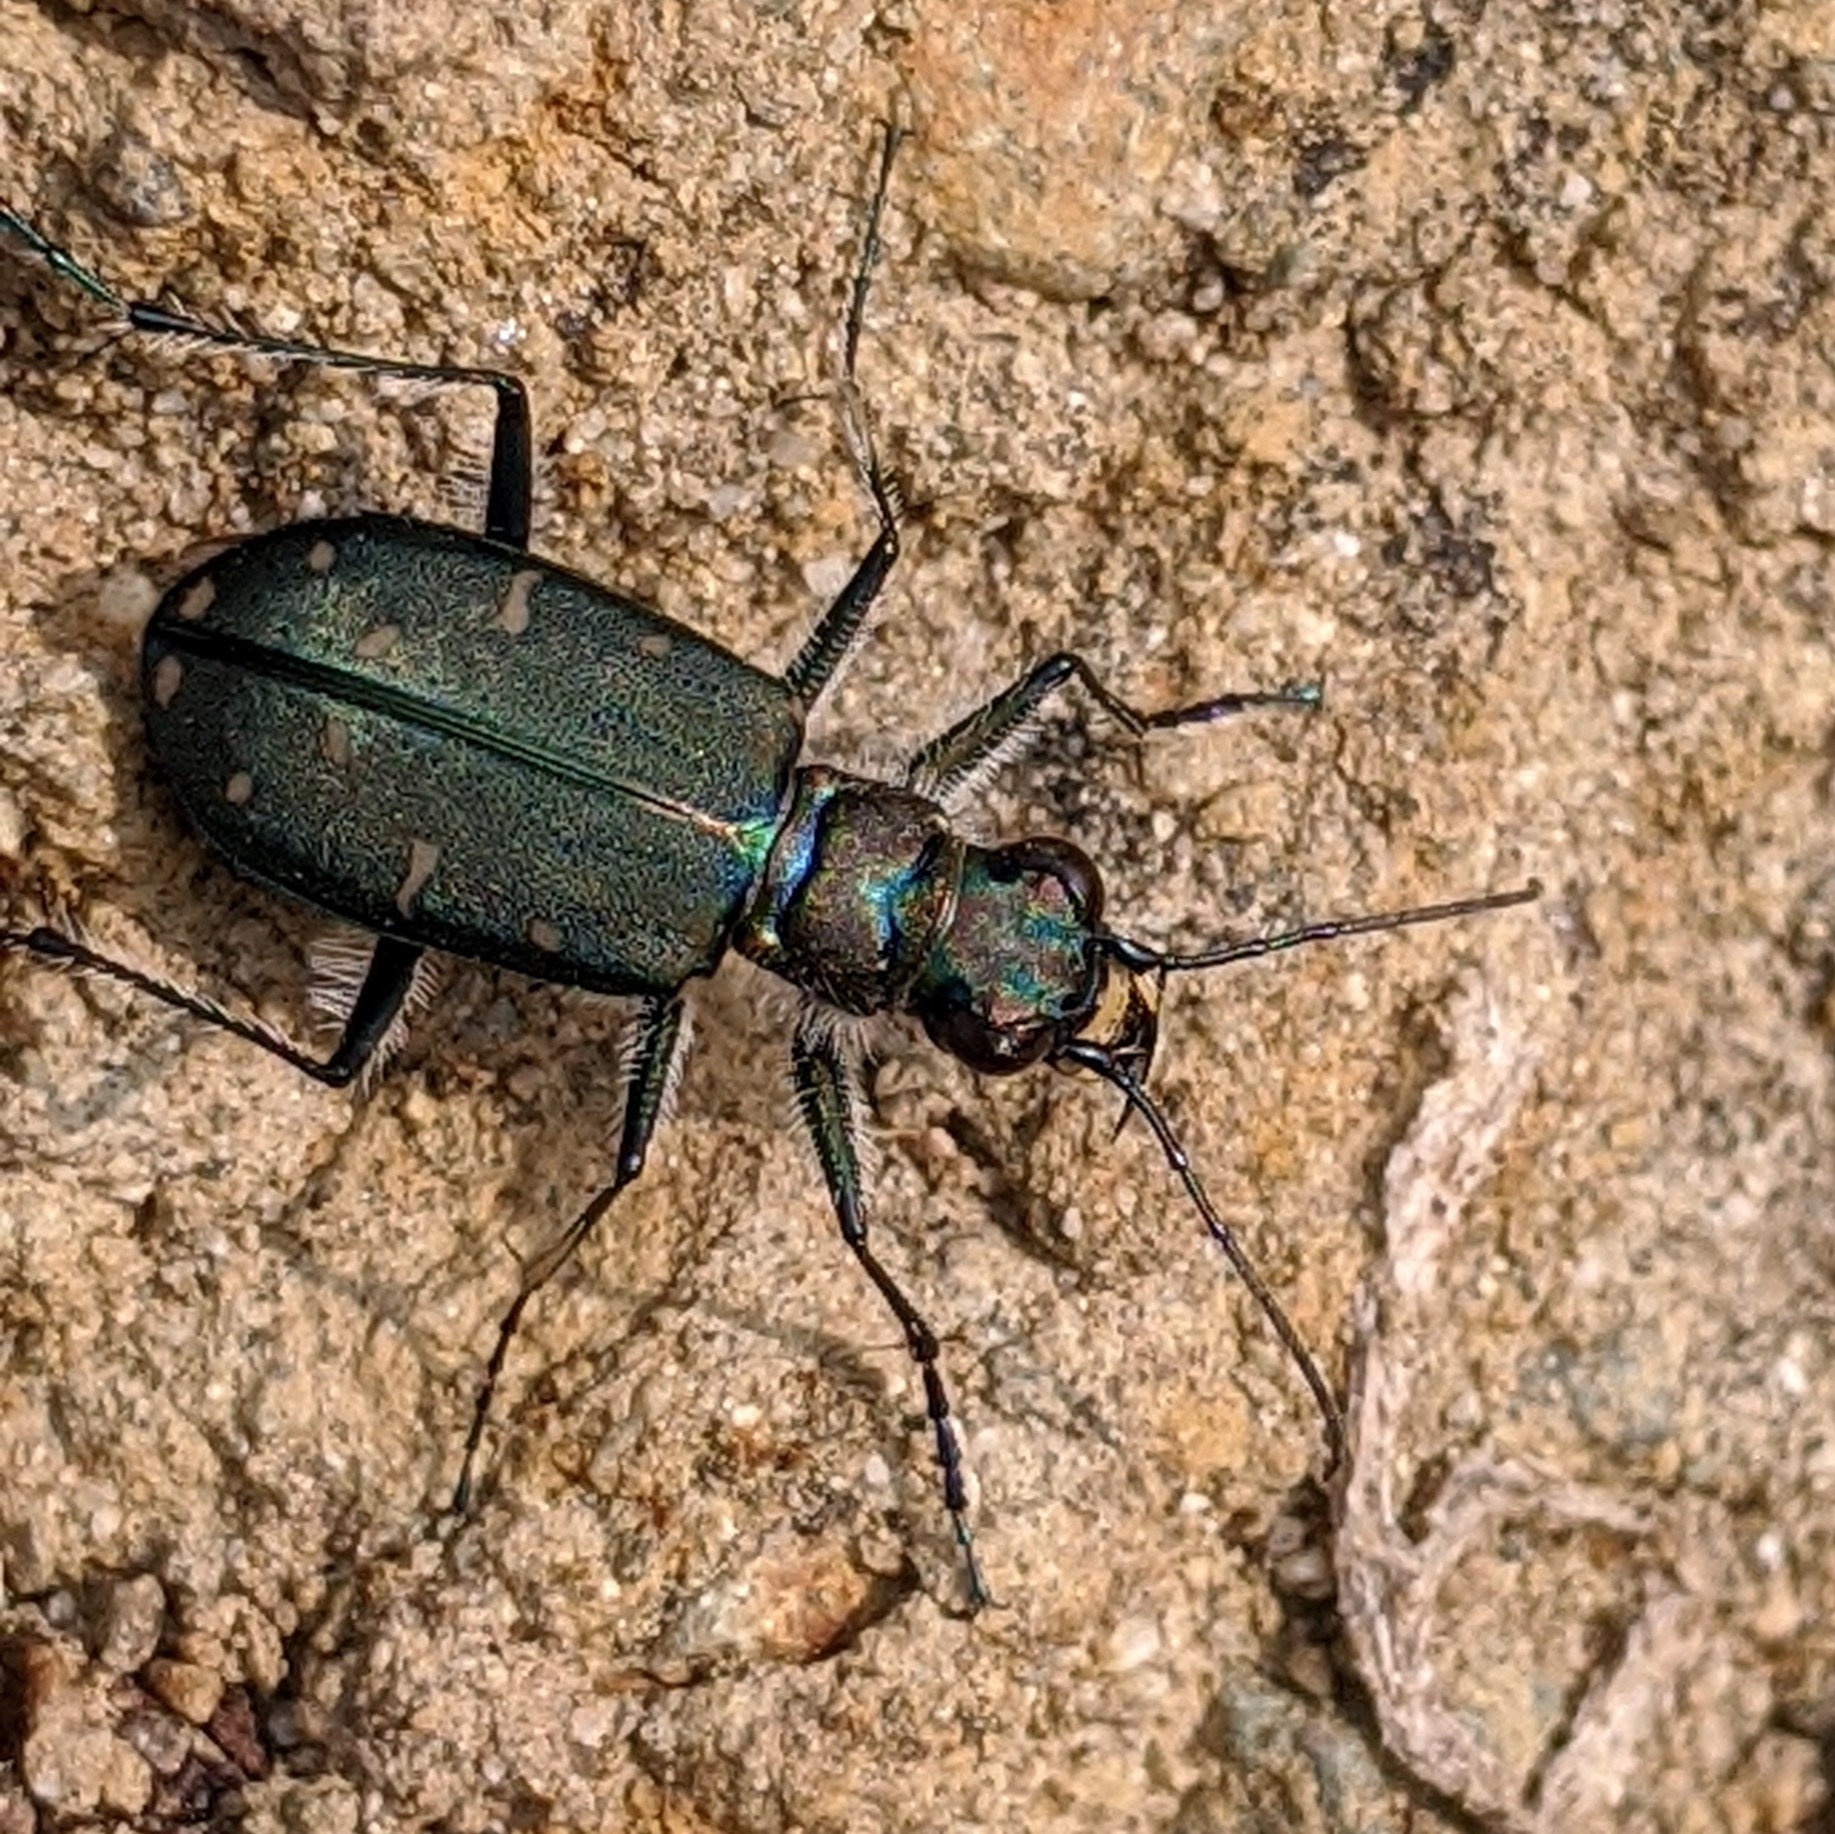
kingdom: Animalia
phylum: Arthropoda
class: Insecta
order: Coleoptera
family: Carabidae
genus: Cicindela
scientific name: Cicindela oregona
